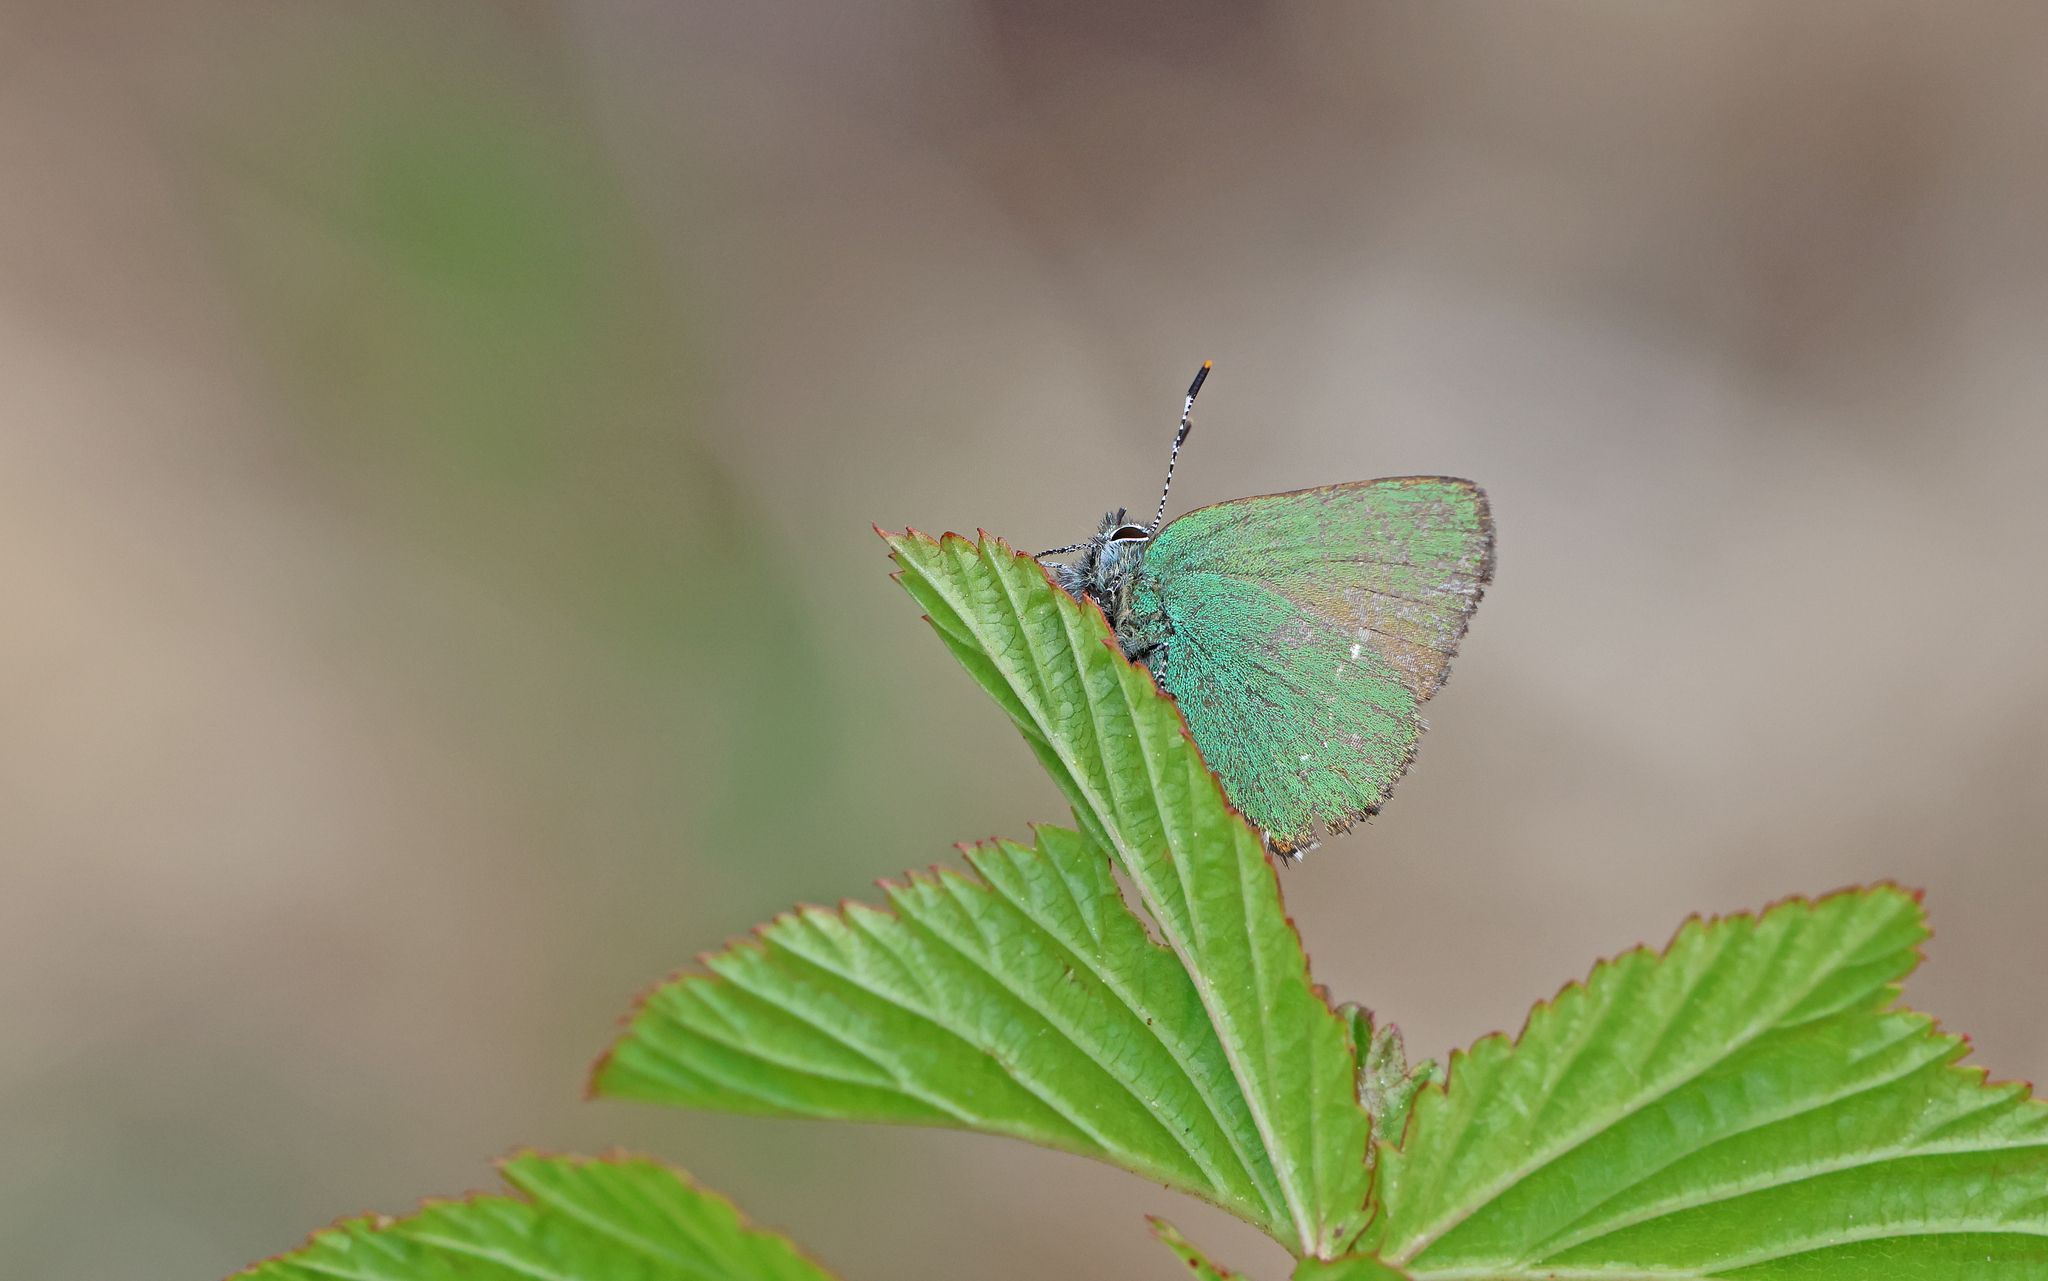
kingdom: Animalia
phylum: Arthropoda
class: Insecta
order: Lepidoptera
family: Lycaenidae
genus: Callophrys
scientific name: Callophrys rubi
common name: Green hairstreak
